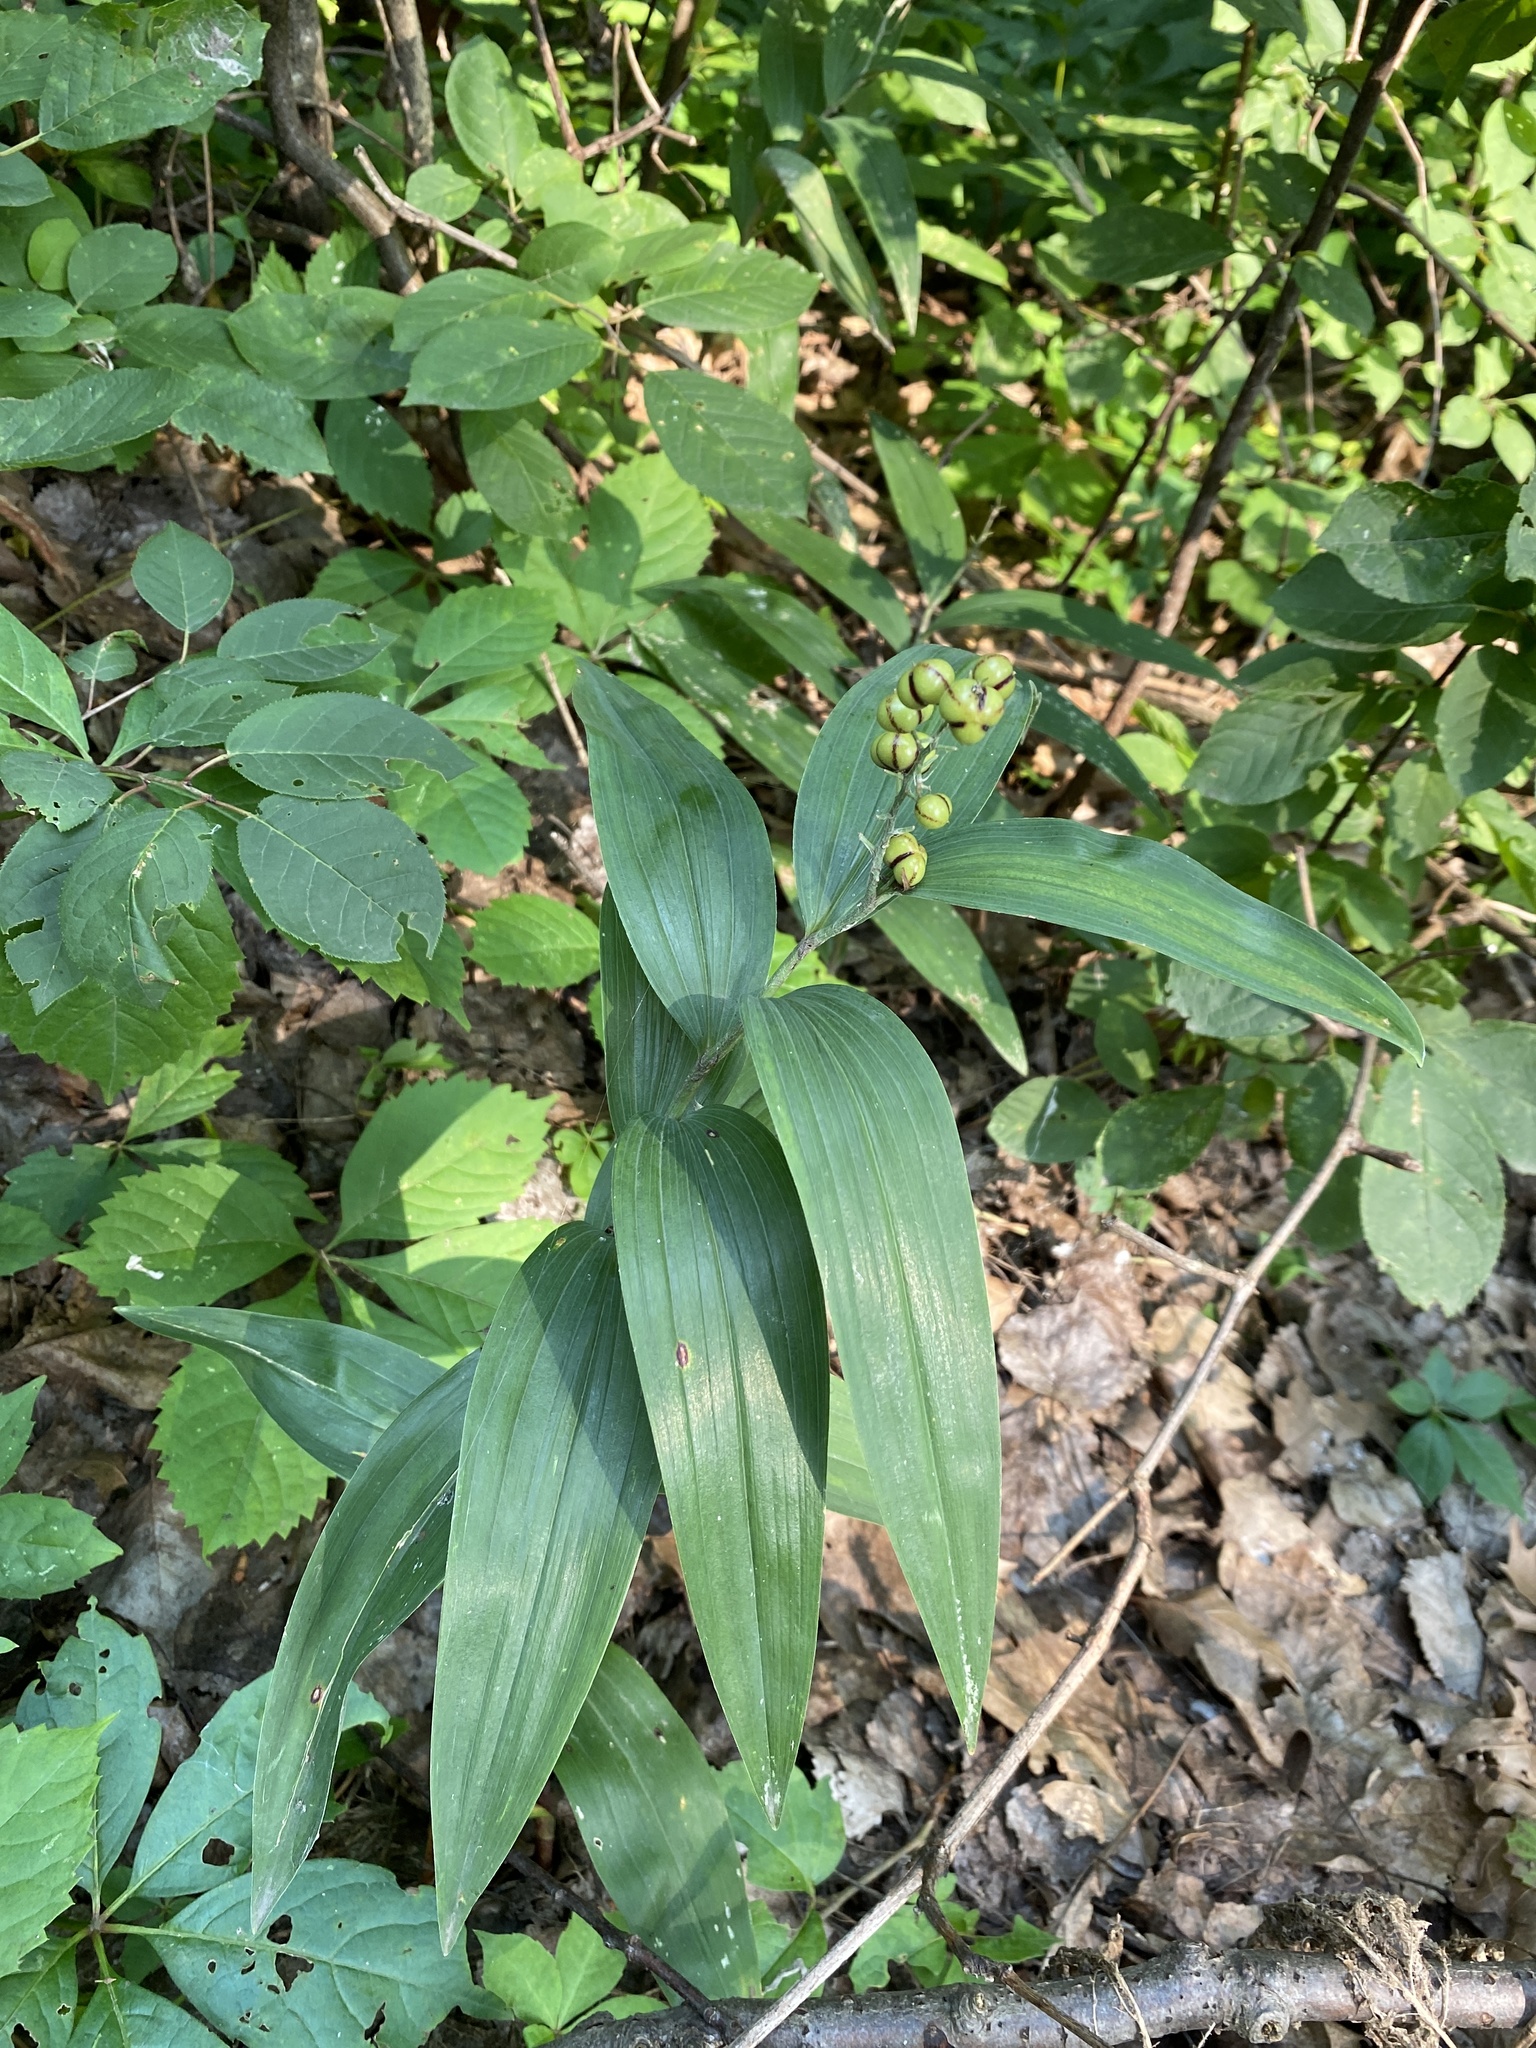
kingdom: Plantae
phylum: Tracheophyta
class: Liliopsida
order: Asparagales
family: Asparagaceae
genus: Maianthemum
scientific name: Maianthemum stellatum
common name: Little false solomon's seal
